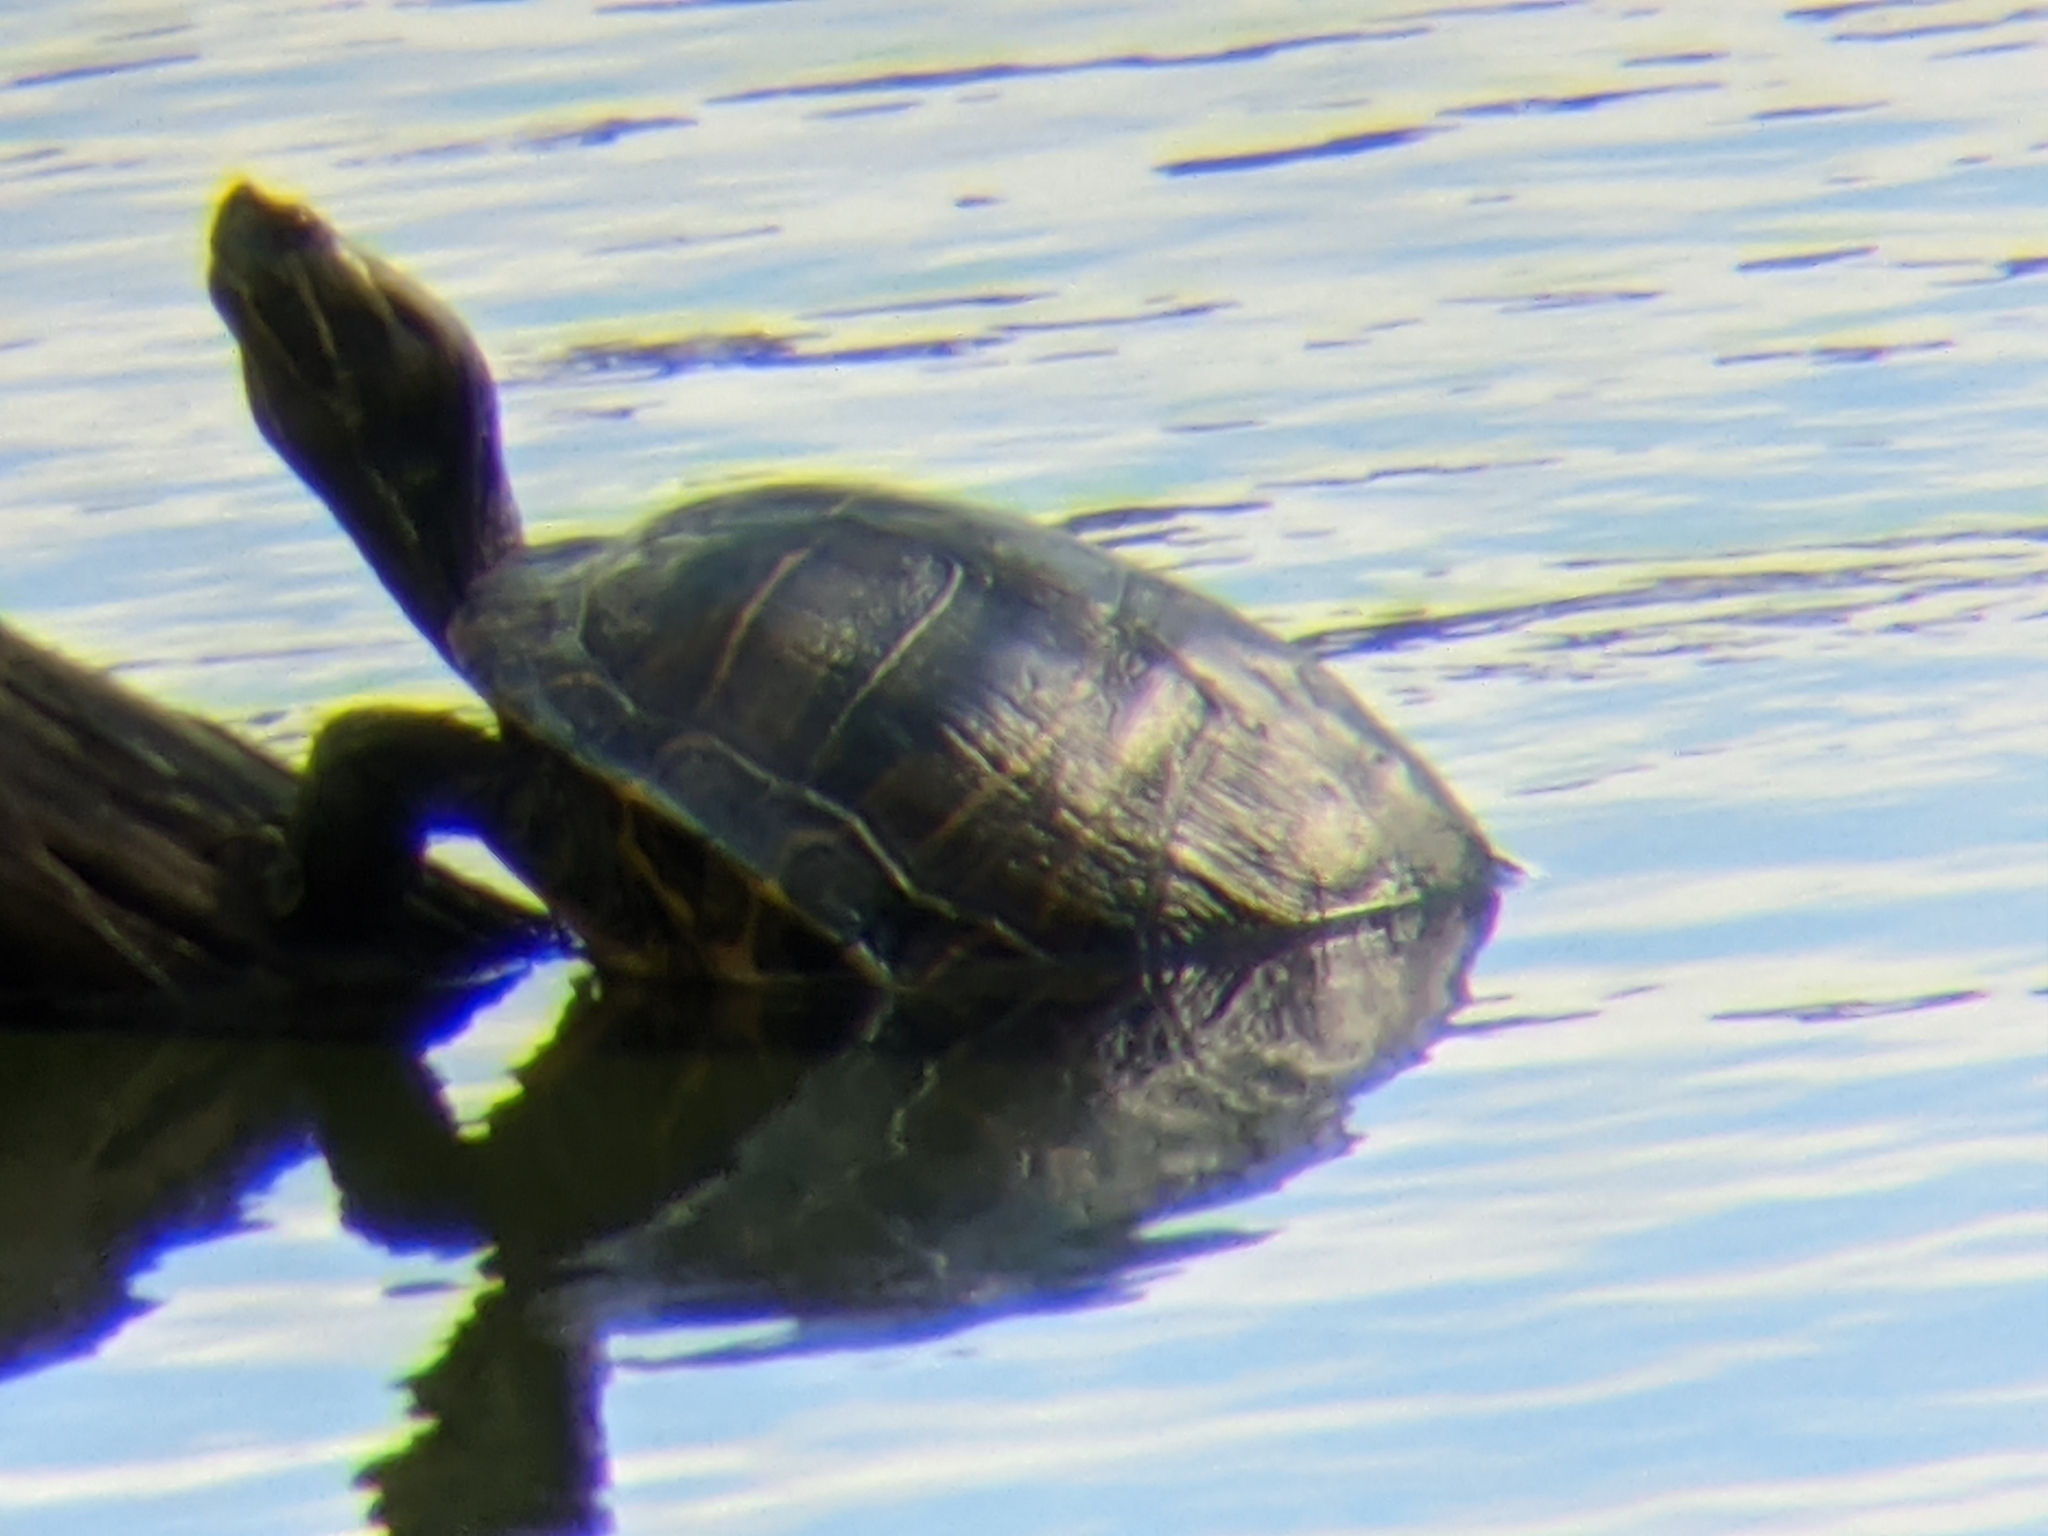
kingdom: Animalia
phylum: Chordata
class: Testudines
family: Emydidae
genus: Trachemys
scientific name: Trachemys scripta
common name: Slider
